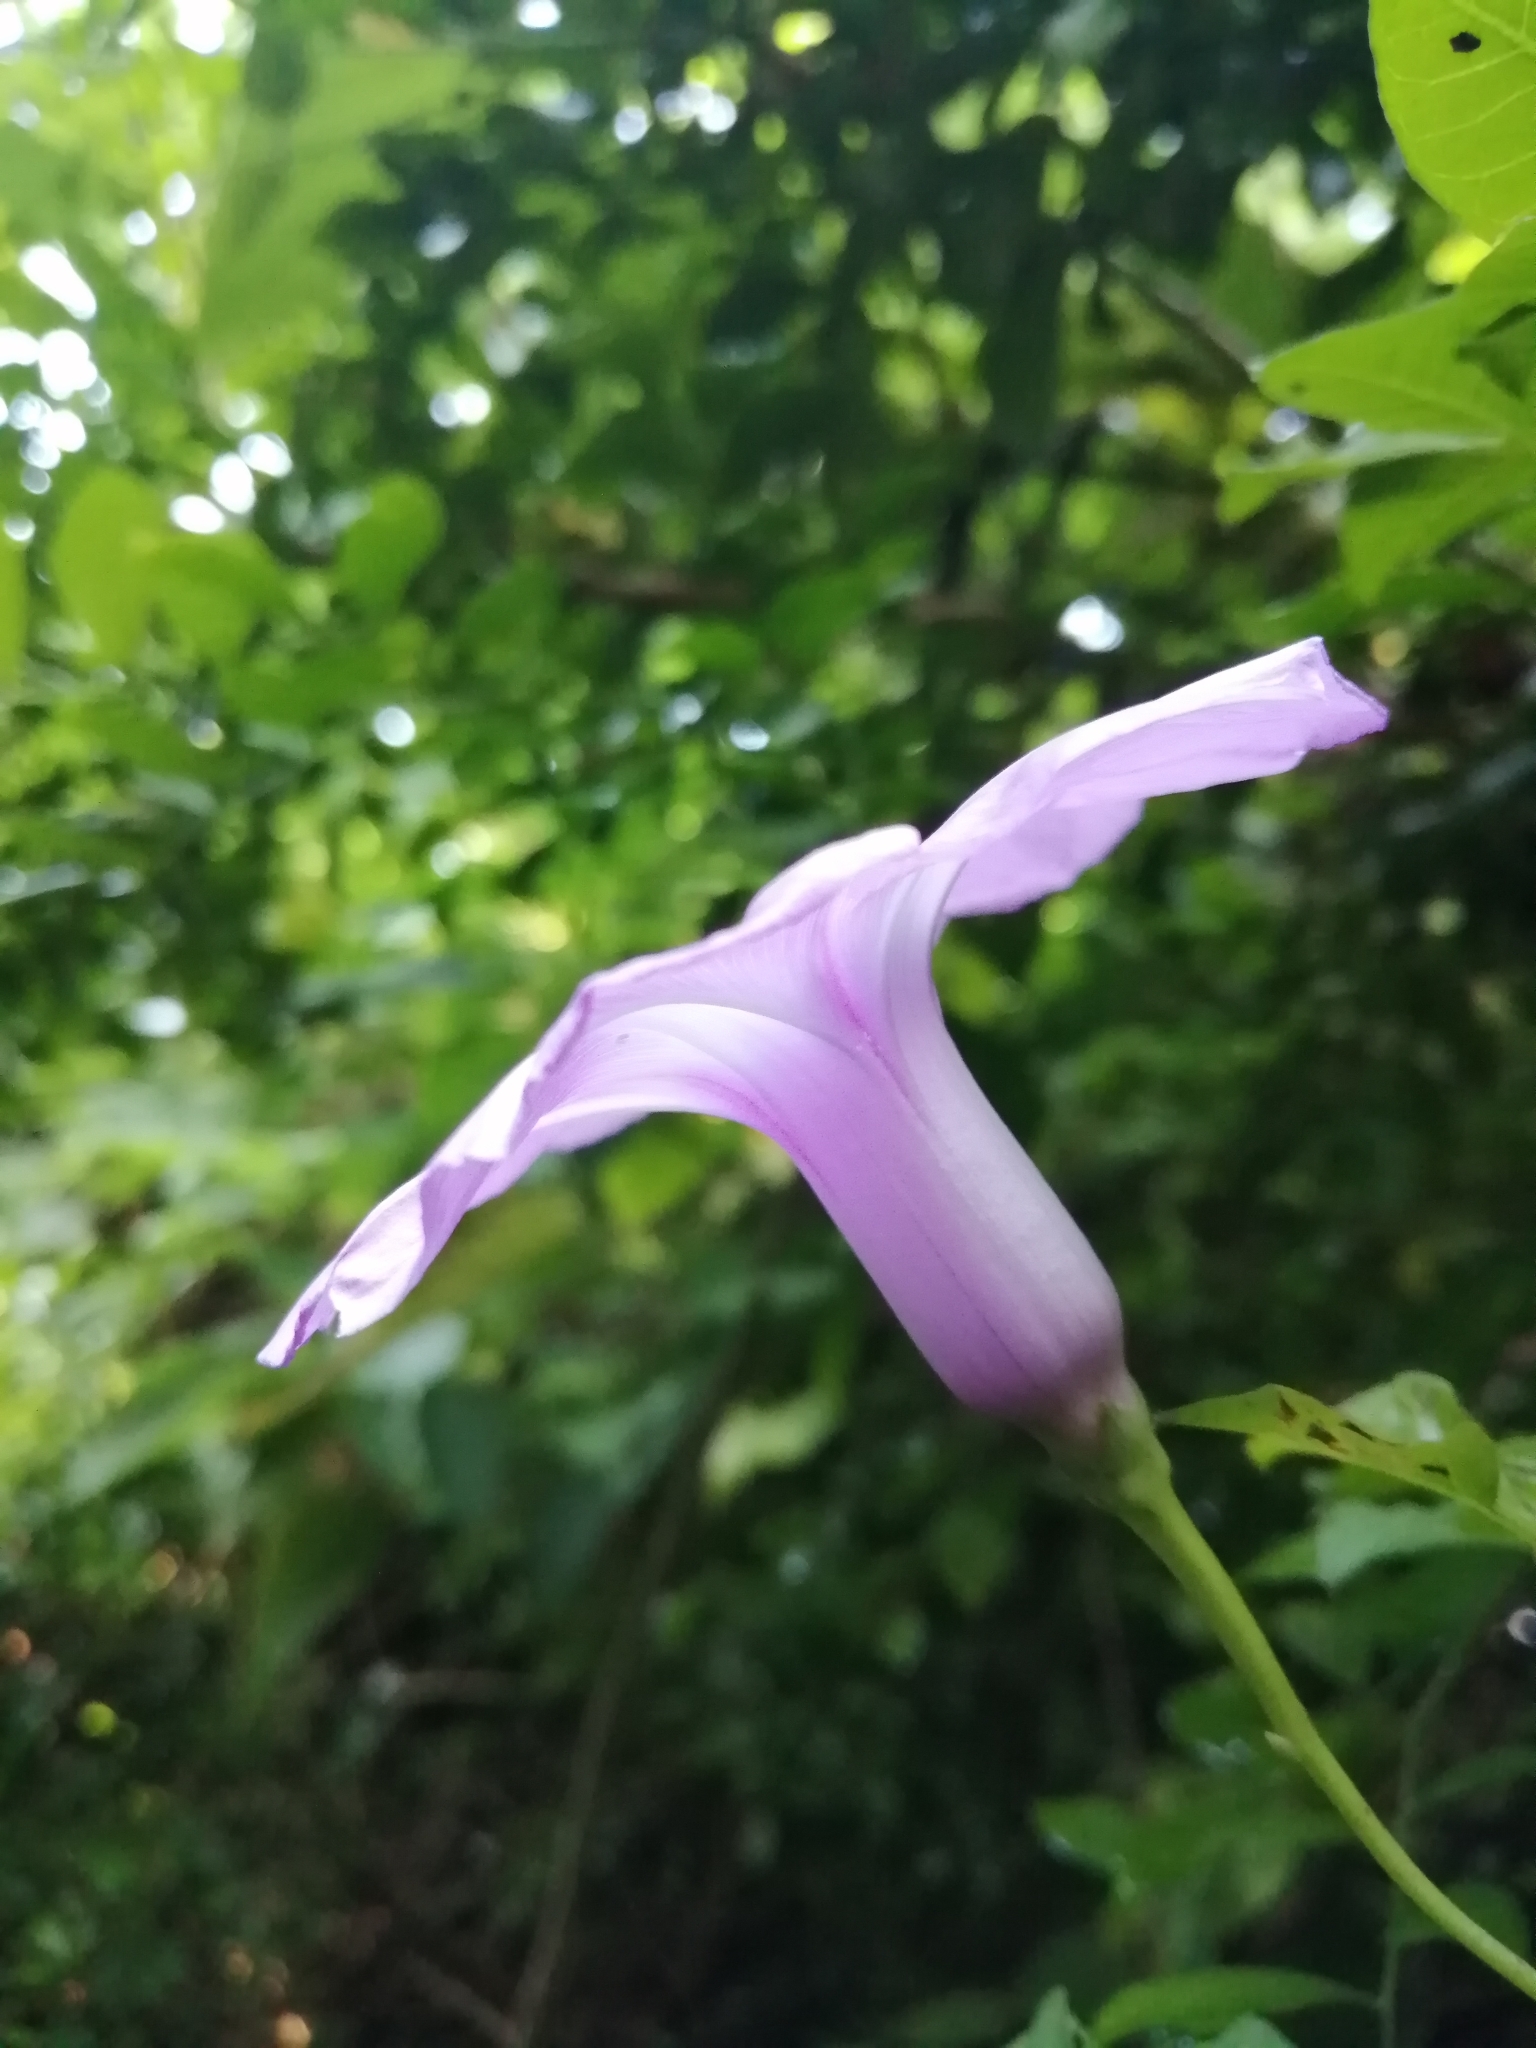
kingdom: Plantae
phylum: Tracheophyta
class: Magnoliopsida
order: Solanales
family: Convolvulaceae
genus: Ipomoea
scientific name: Ipomoea cairica
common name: Mile a minute vine
